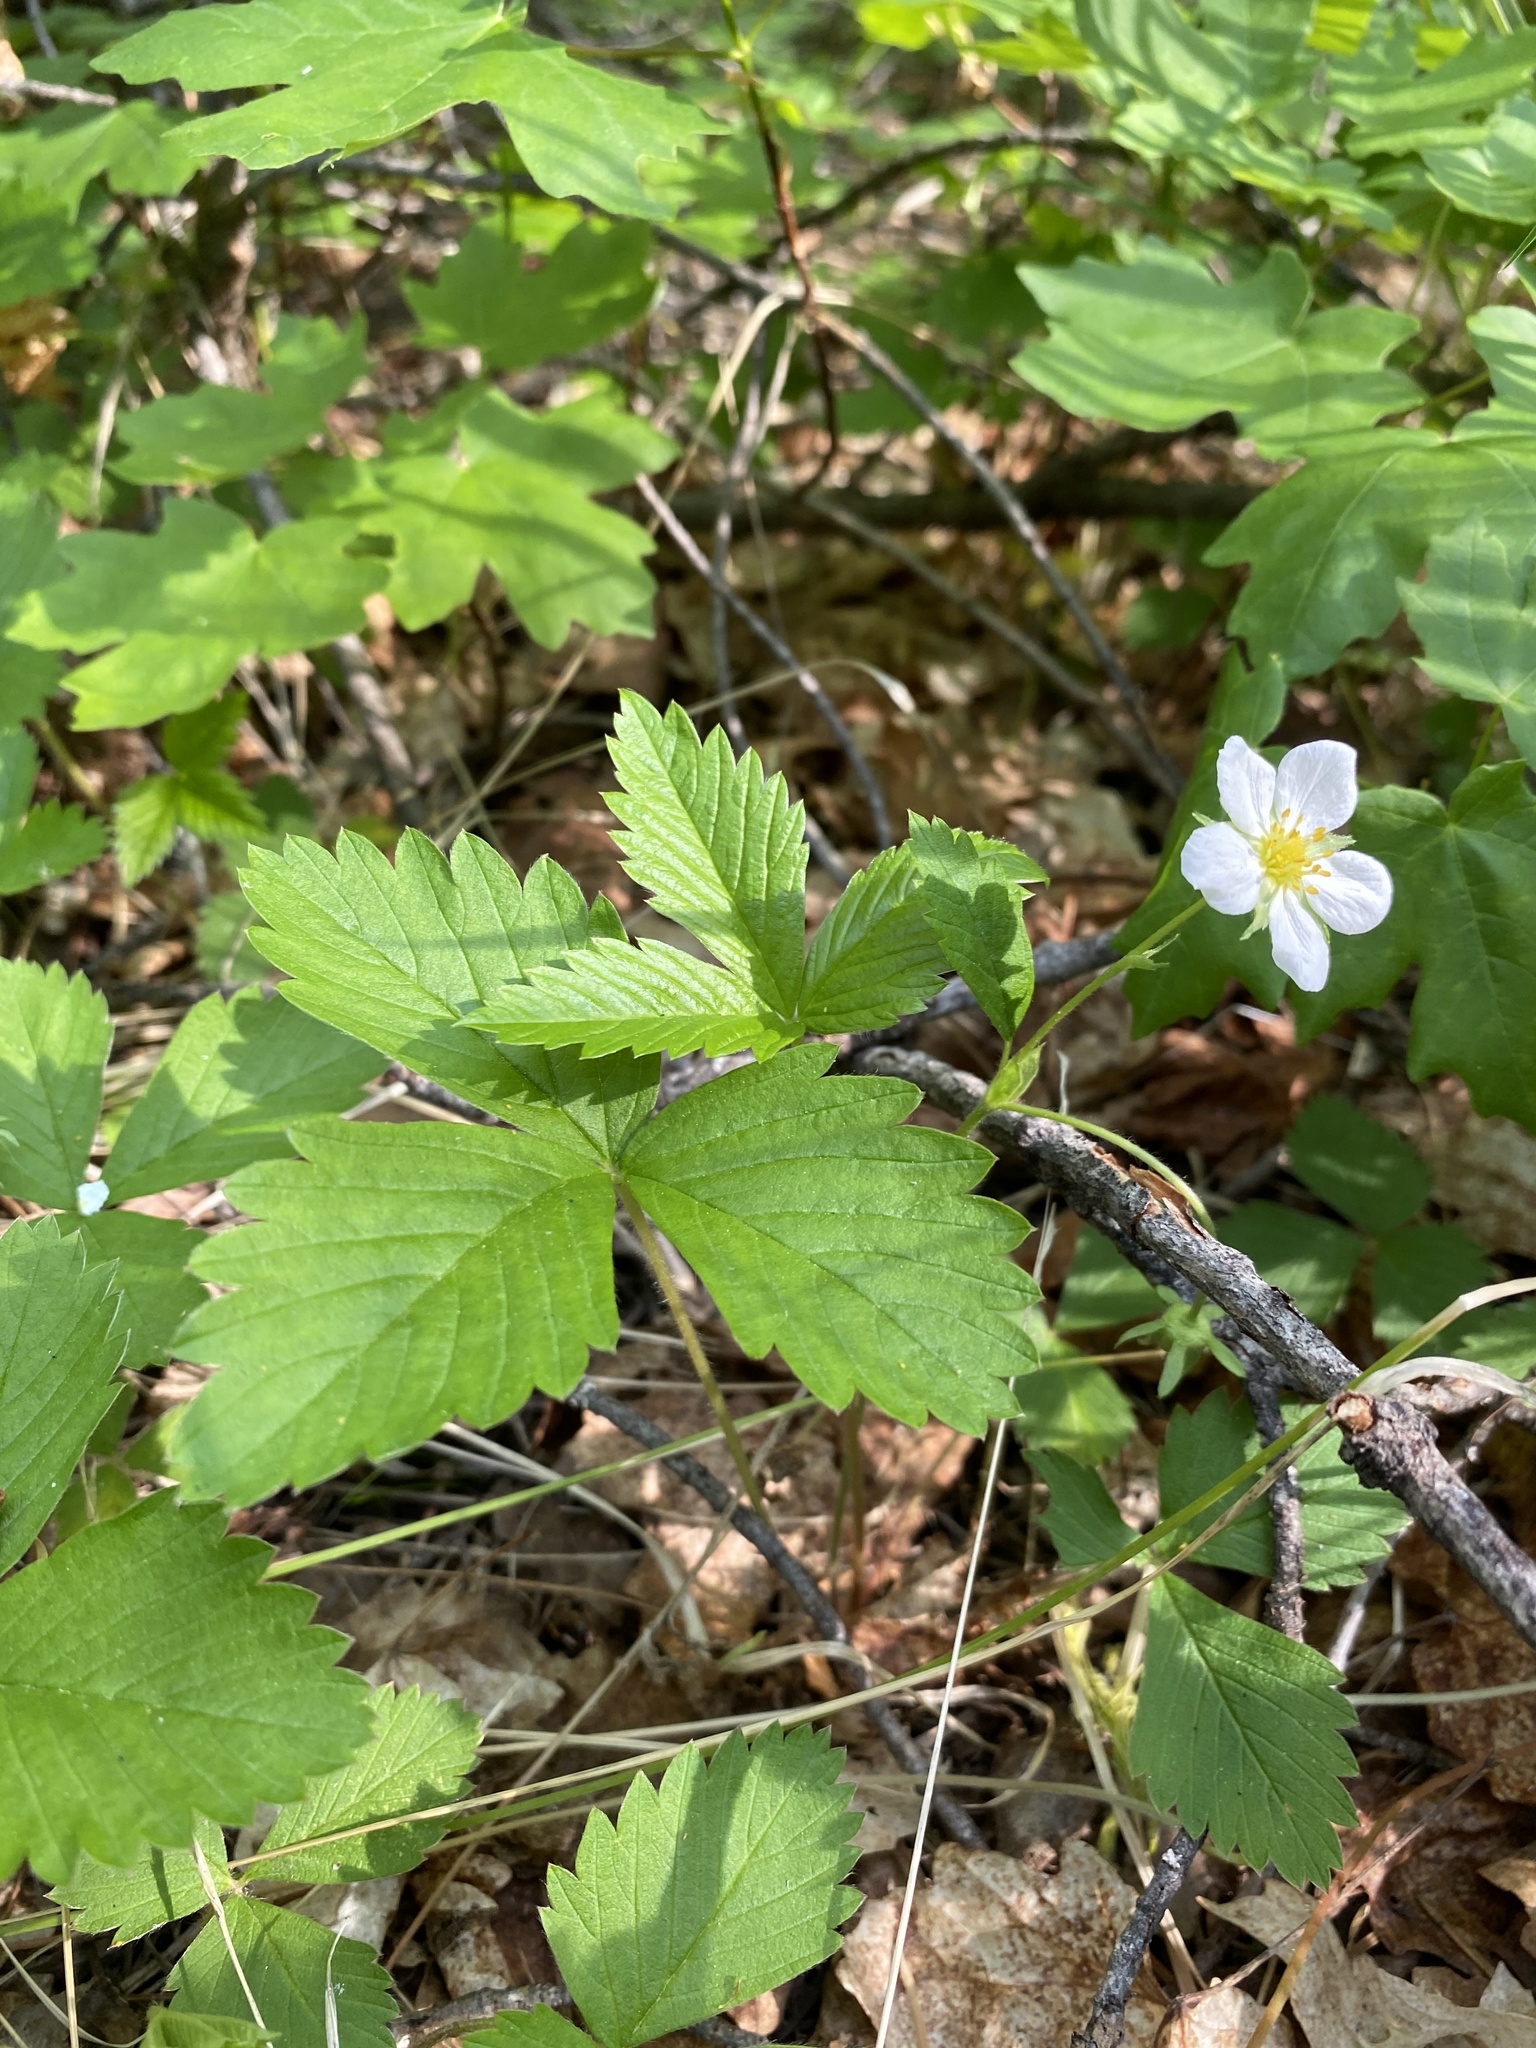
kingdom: Plantae
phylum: Tracheophyta
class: Magnoliopsida
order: Rosales
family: Rosaceae
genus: Fragaria
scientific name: Fragaria vesca
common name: Wild strawberry
